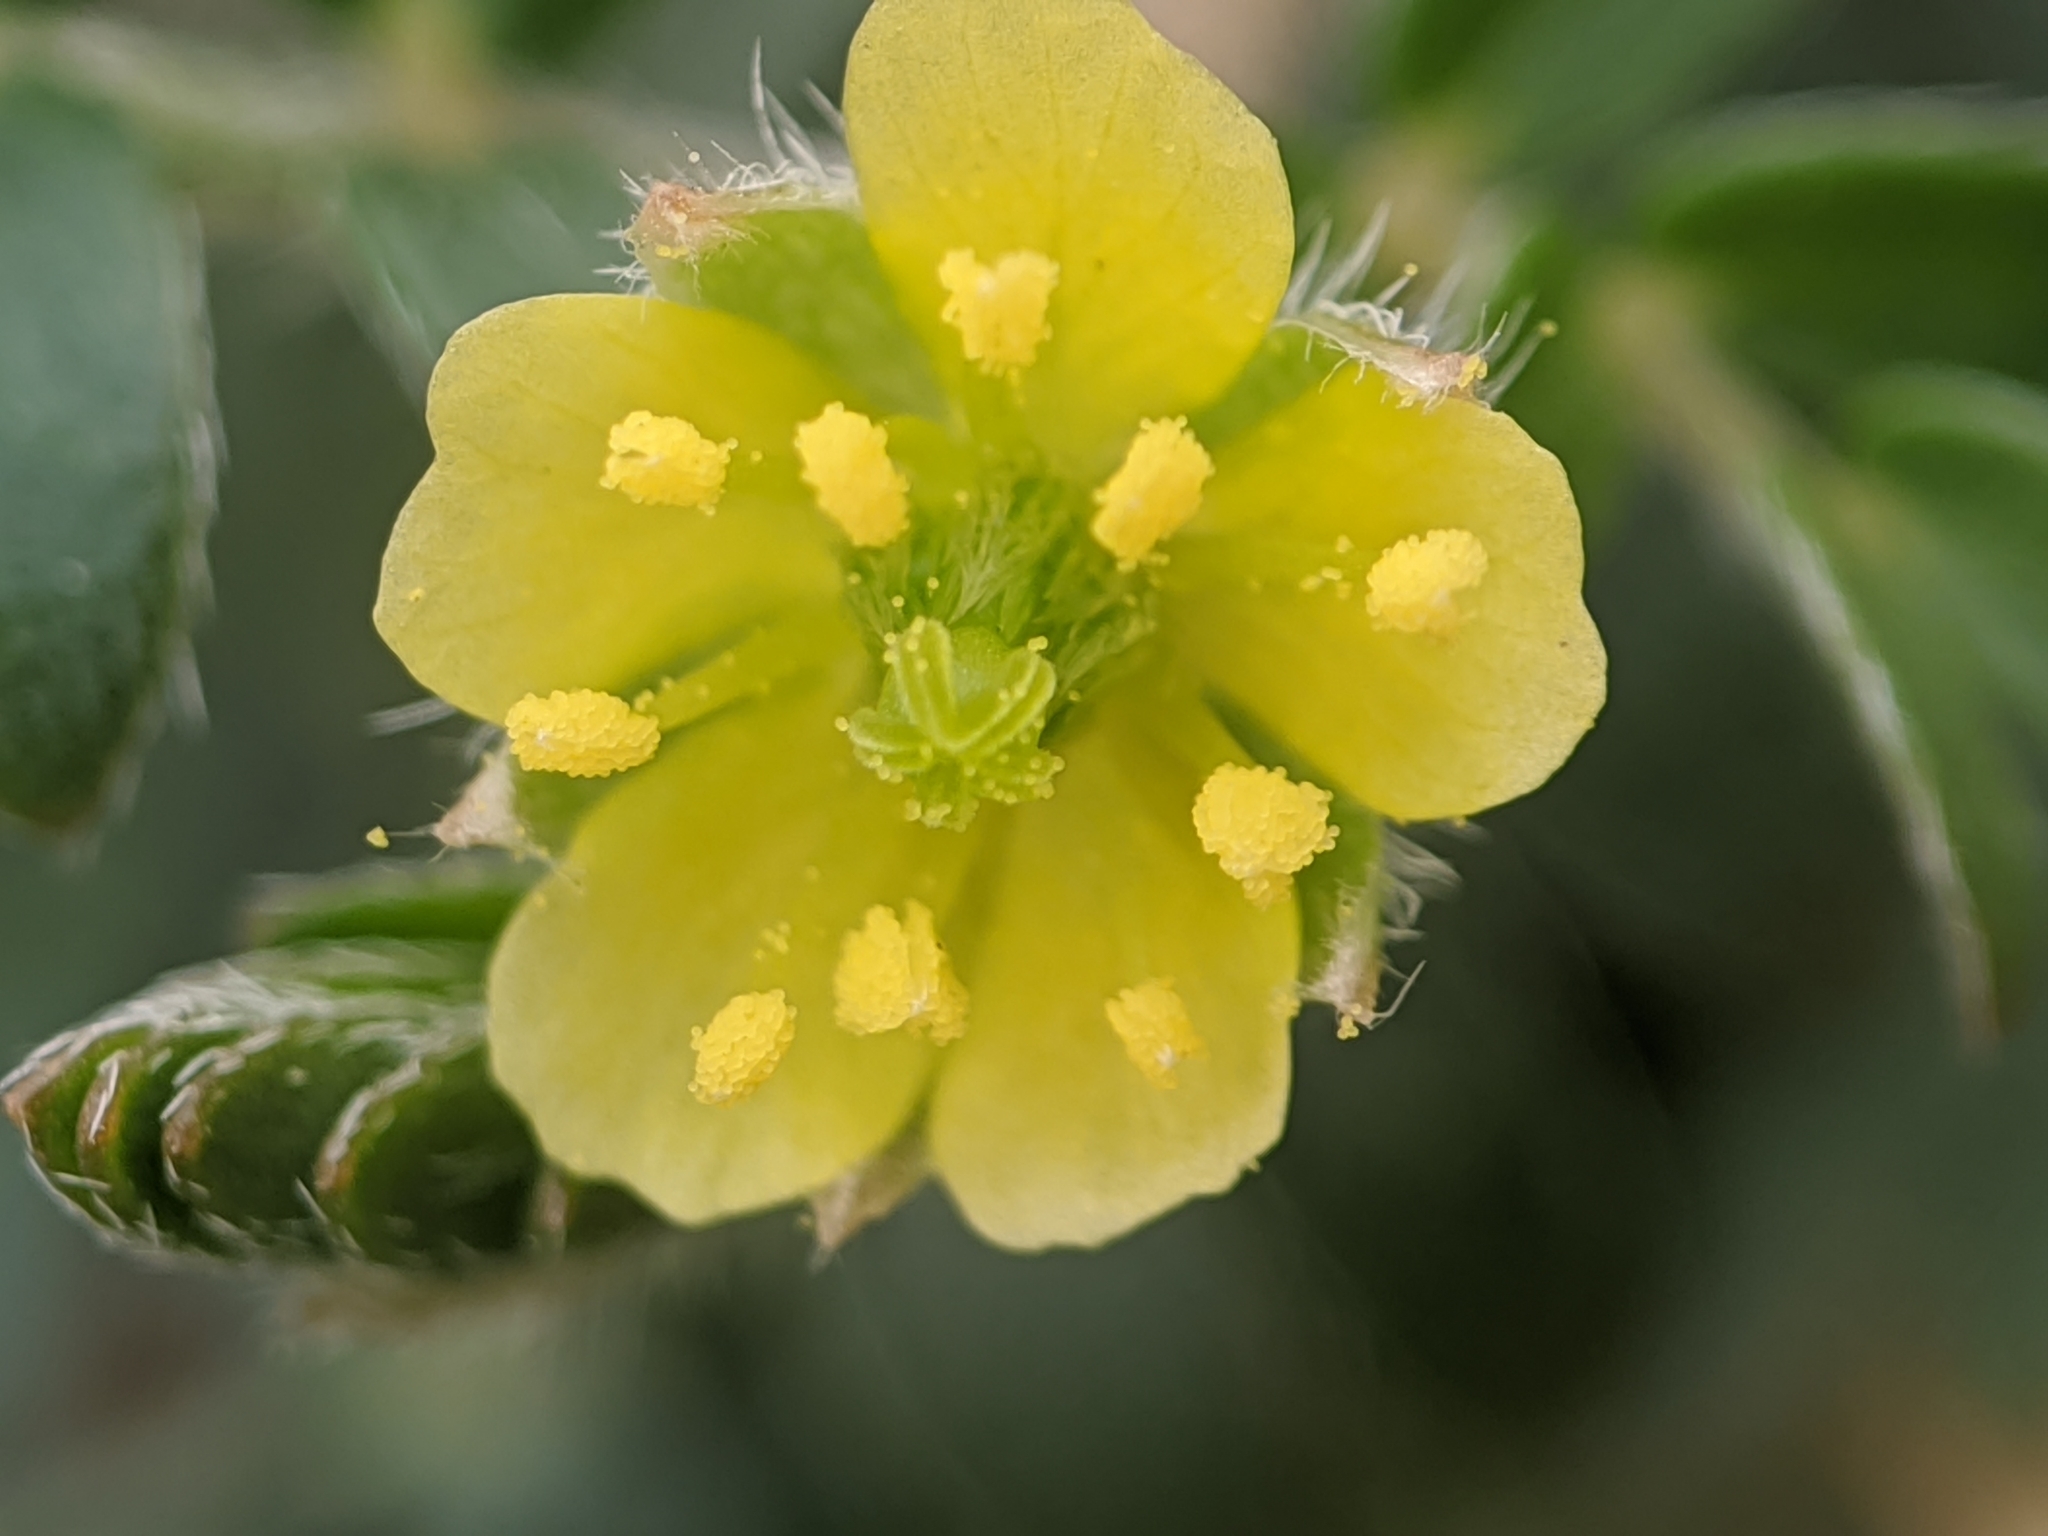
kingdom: Plantae
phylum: Tracheophyta
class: Magnoliopsida
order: Zygophyllales
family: Zygophyllaceae
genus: Tribulus
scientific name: Tribulus terrestris
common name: Puncturevine
